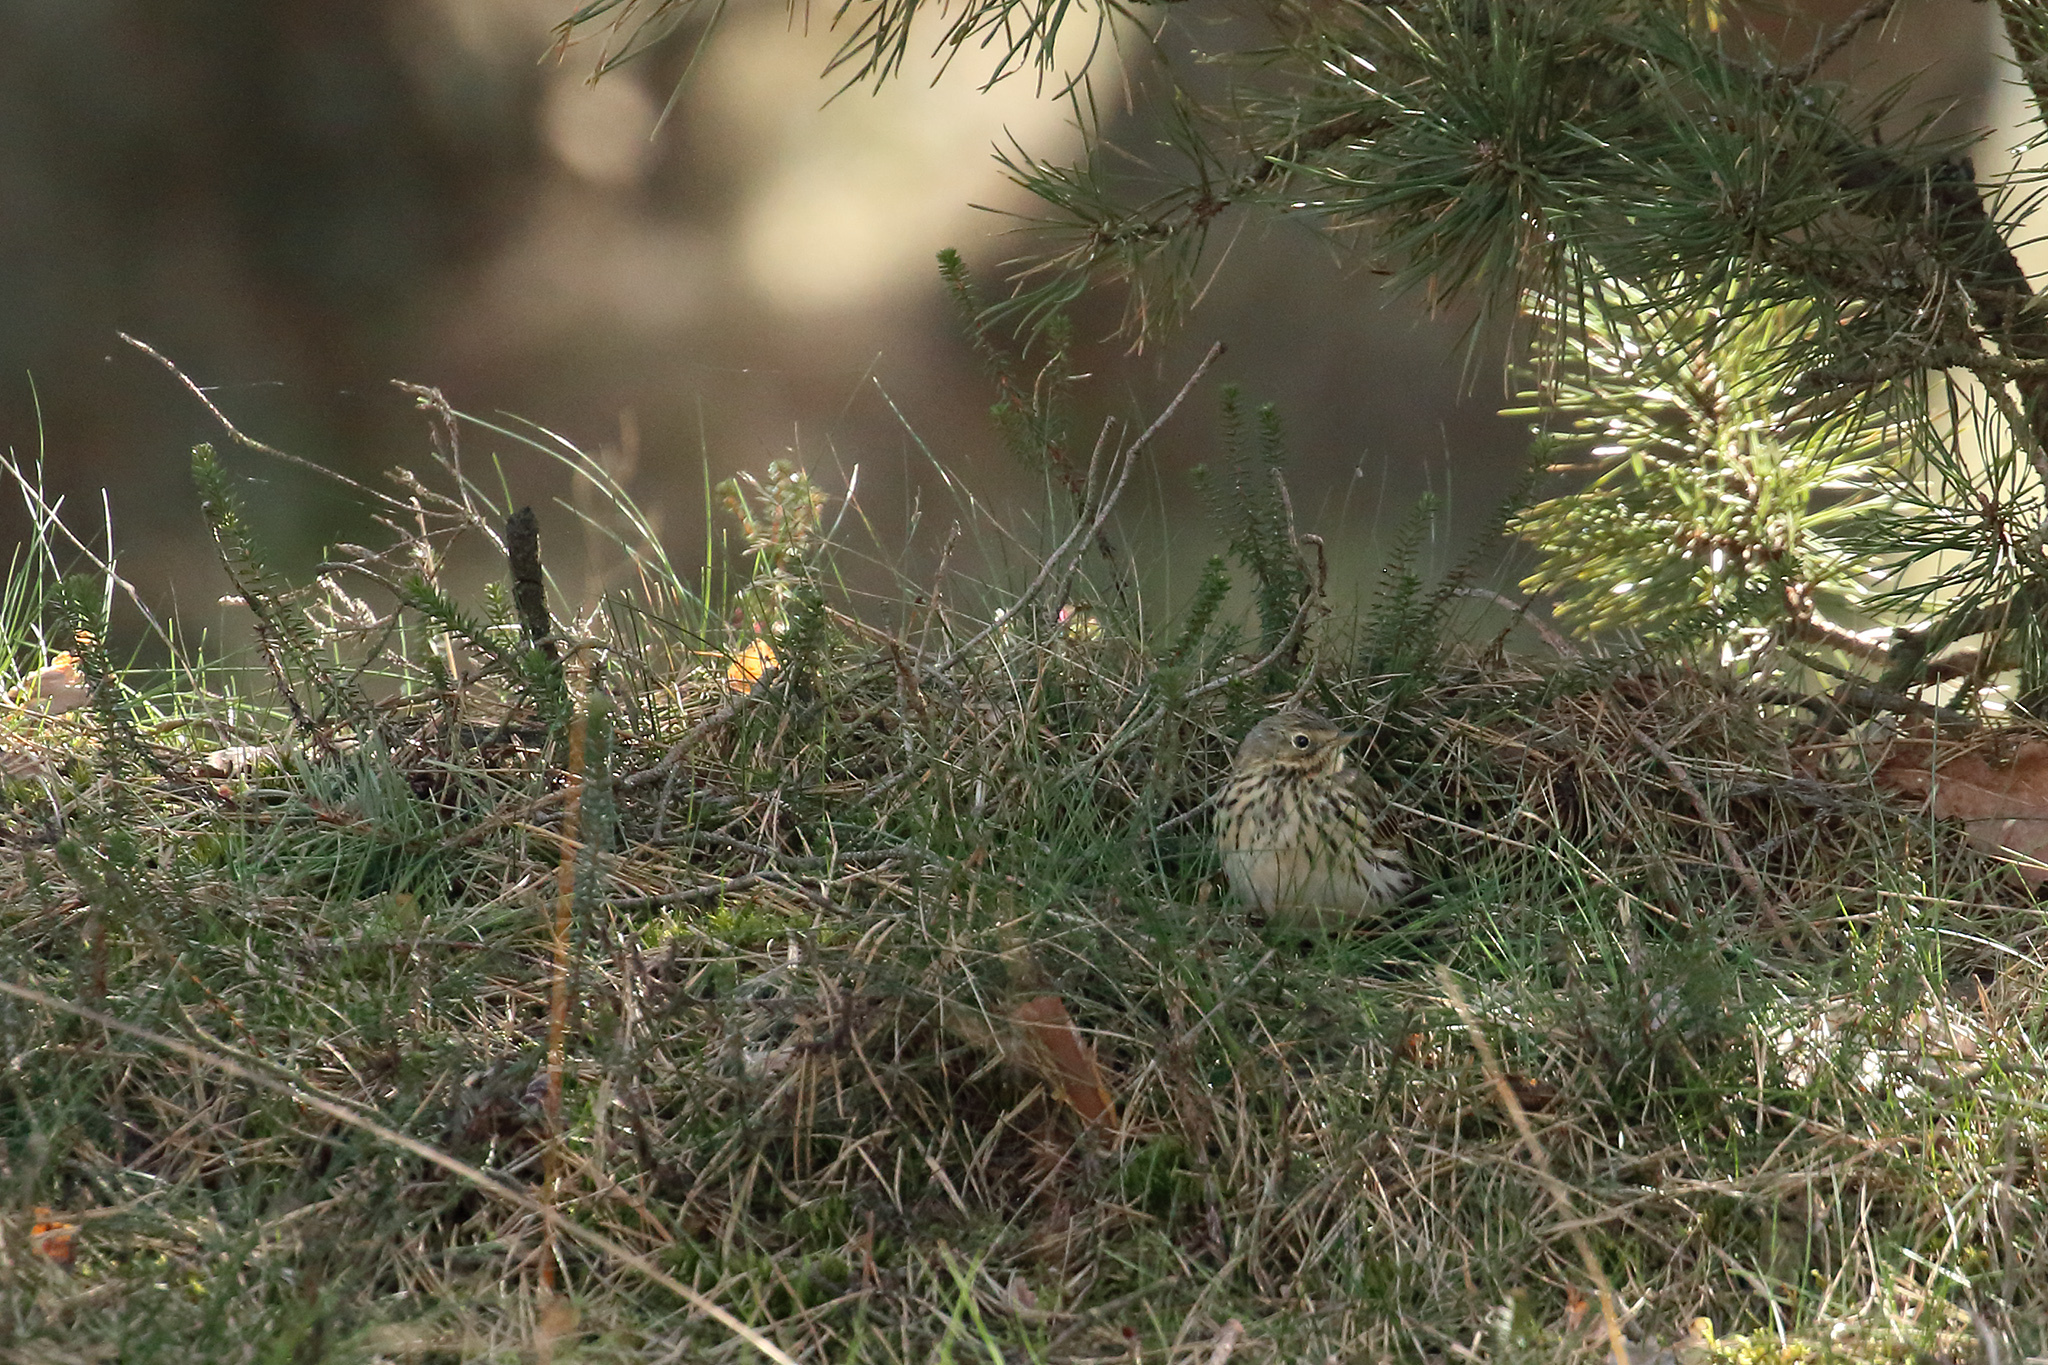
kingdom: Animalia
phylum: Chordata
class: Aves
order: Passeriformes
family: Motacillidae
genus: Anthus
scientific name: Anthus pratensis
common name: Meadow pipit
